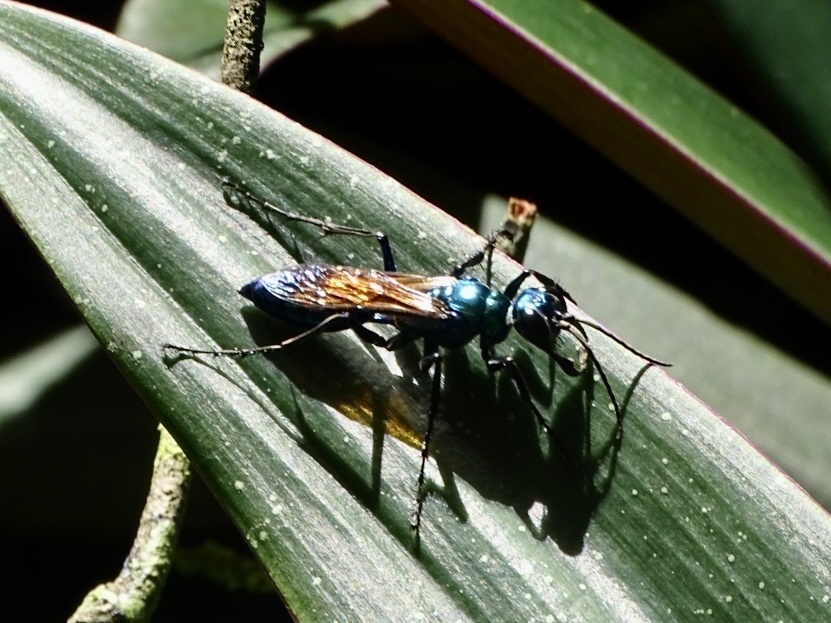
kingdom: Animalia
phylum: Arthropoda
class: Insecta
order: Hymenoptera
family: Sphecidae
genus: Chlorion
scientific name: Chlorion lobatum
